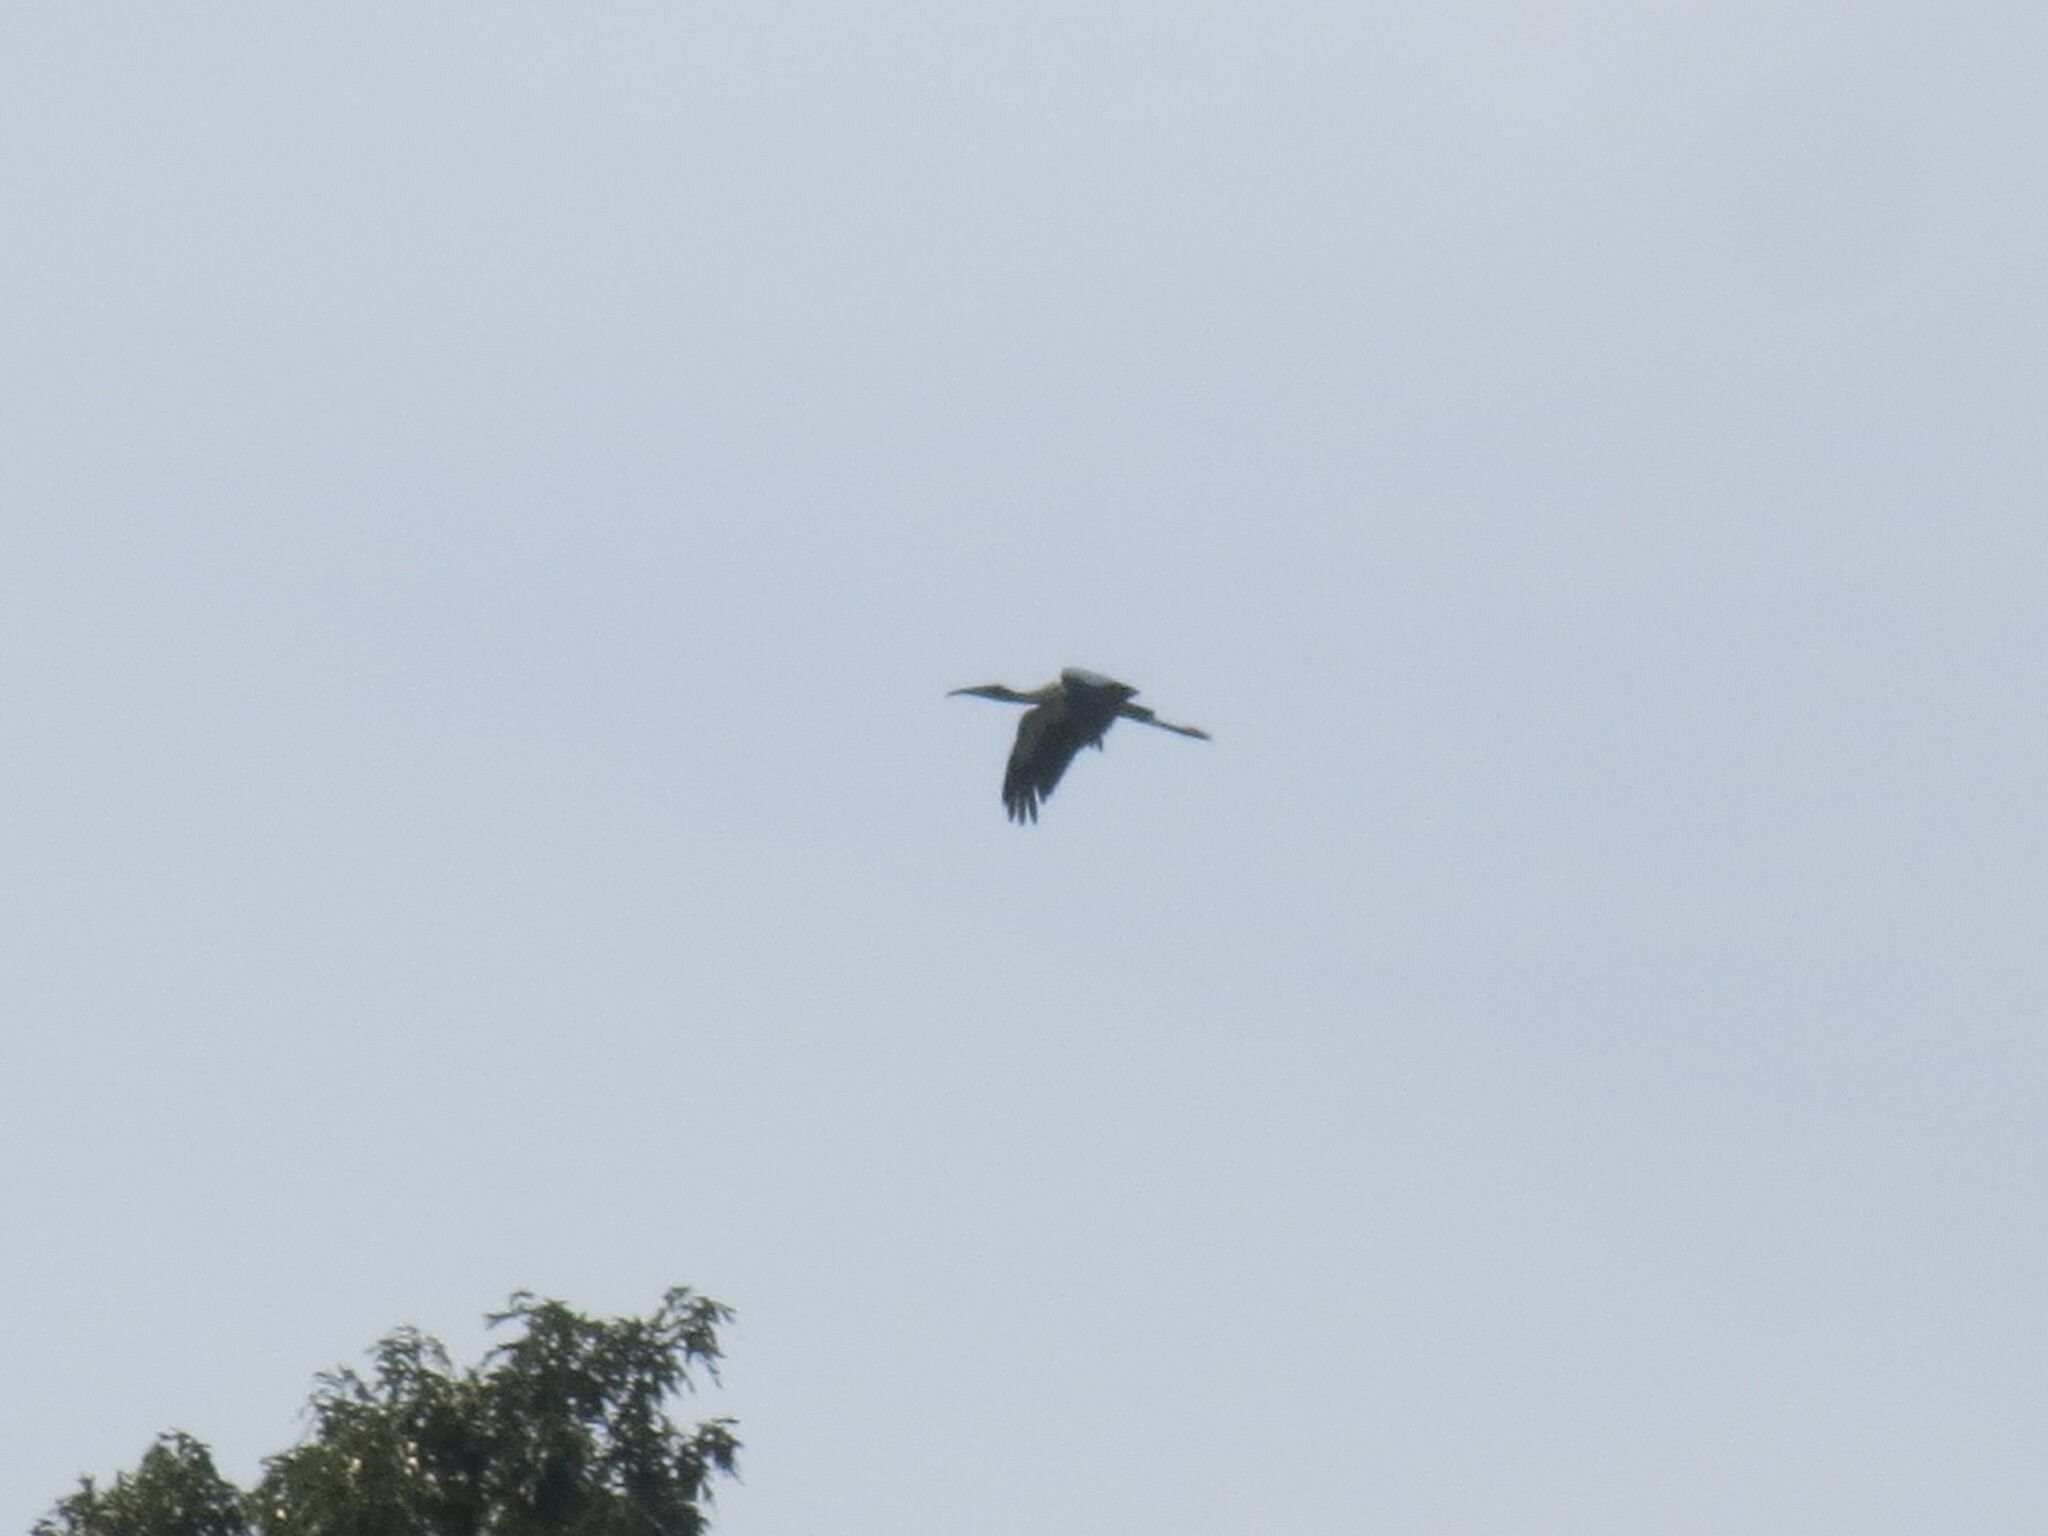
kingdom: Animalia
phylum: Chordata
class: Aves
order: Ciconiiformes
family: Ciconiidae
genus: Mycteria
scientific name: Mycteria americana
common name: Wood stork
